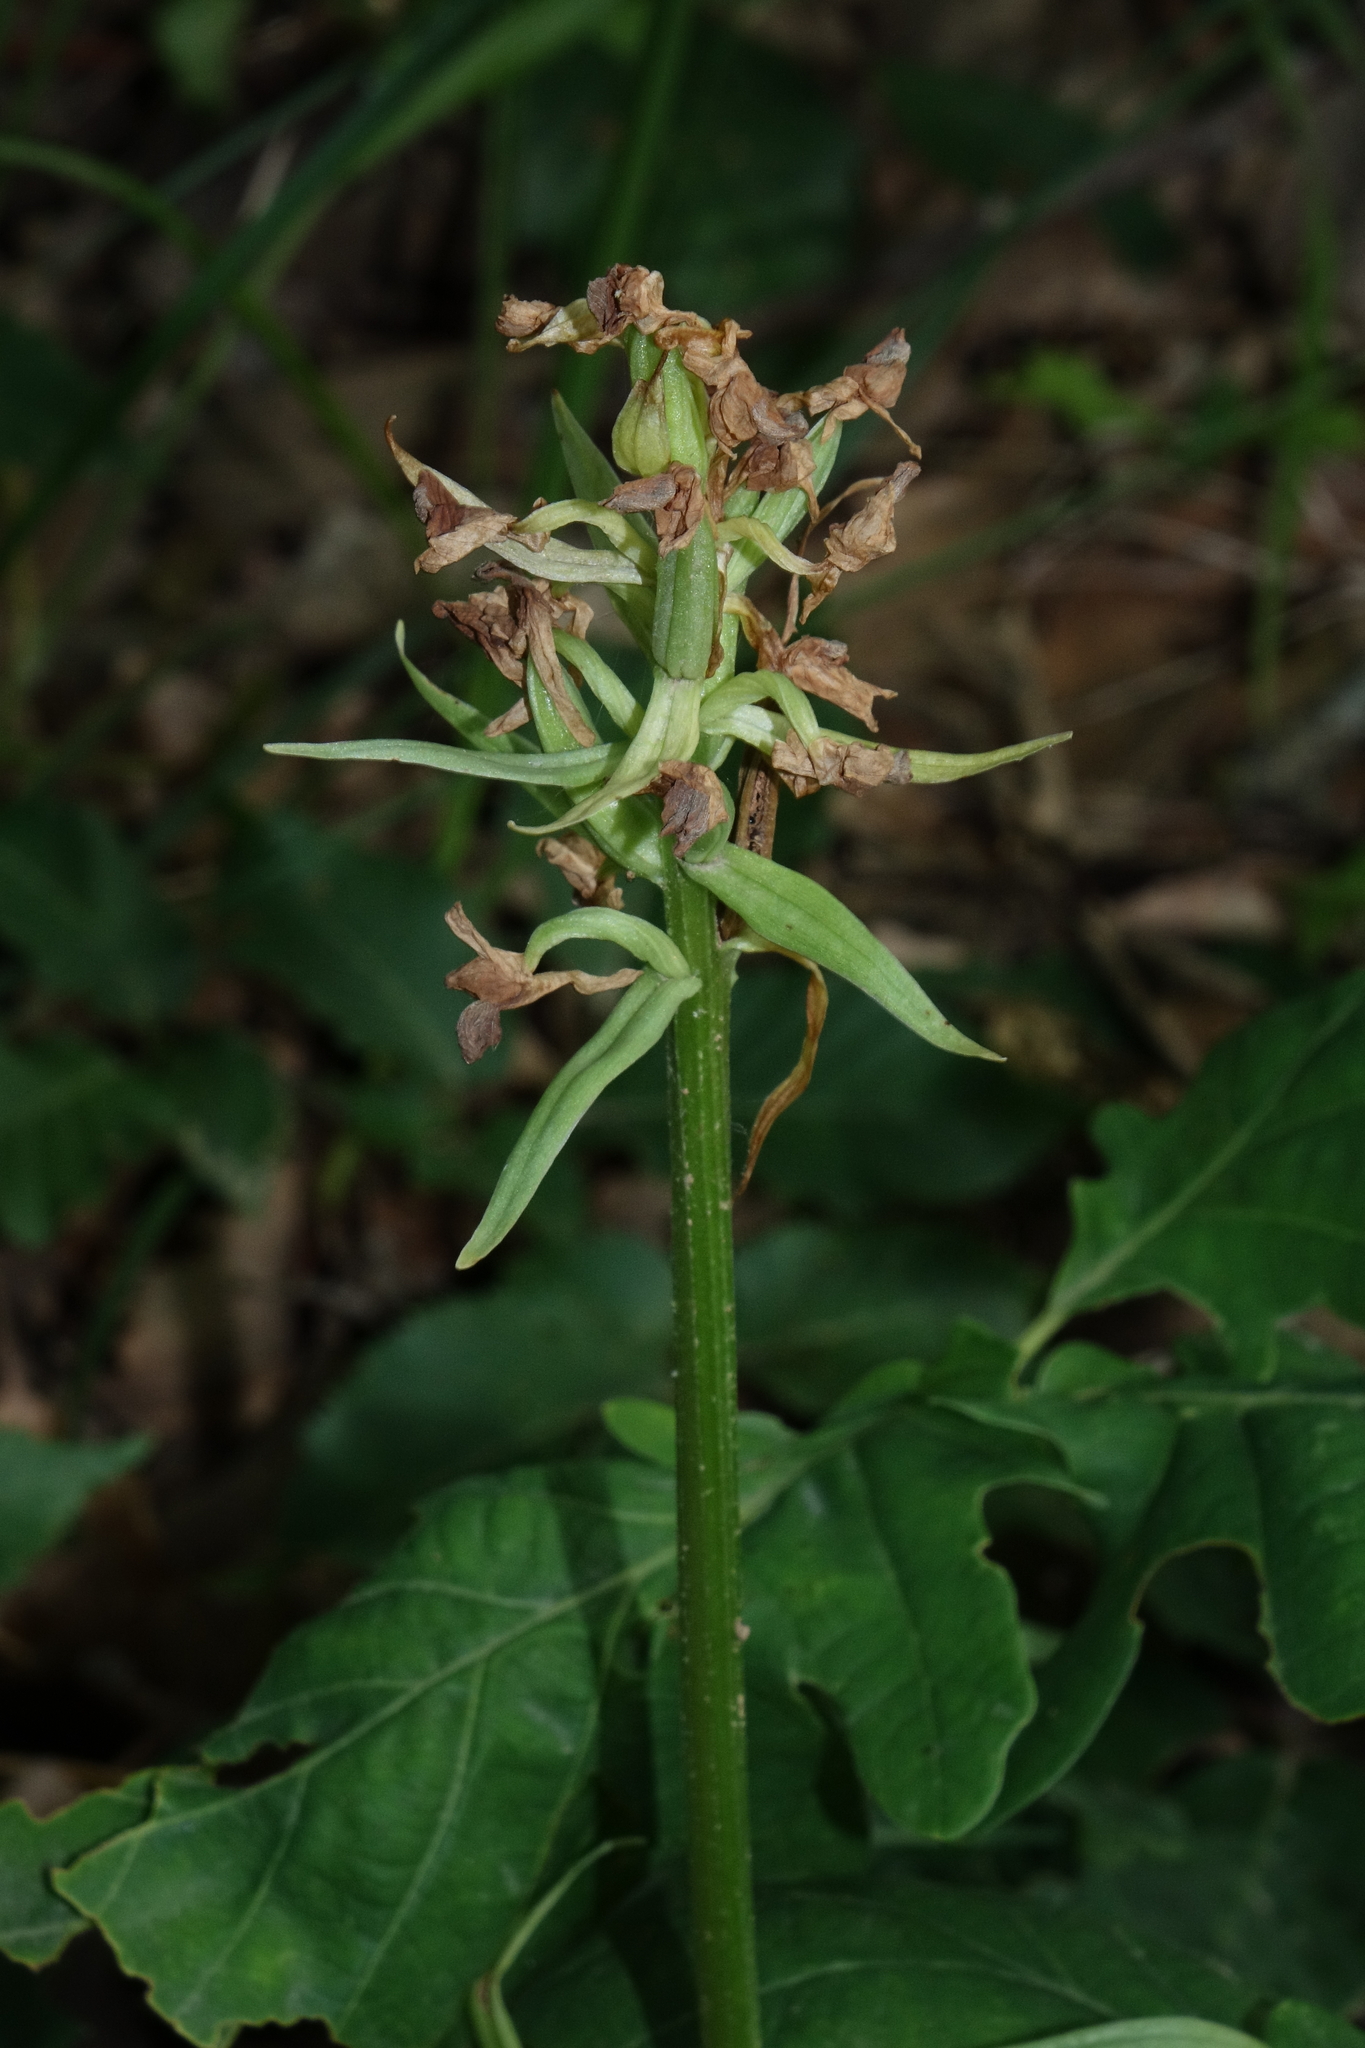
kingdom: Plantae
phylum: Tracheophyta
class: Liliopsida
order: Asparagales
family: Orchidaceae
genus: Dactylorhiza
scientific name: Dactylorhiza romana
